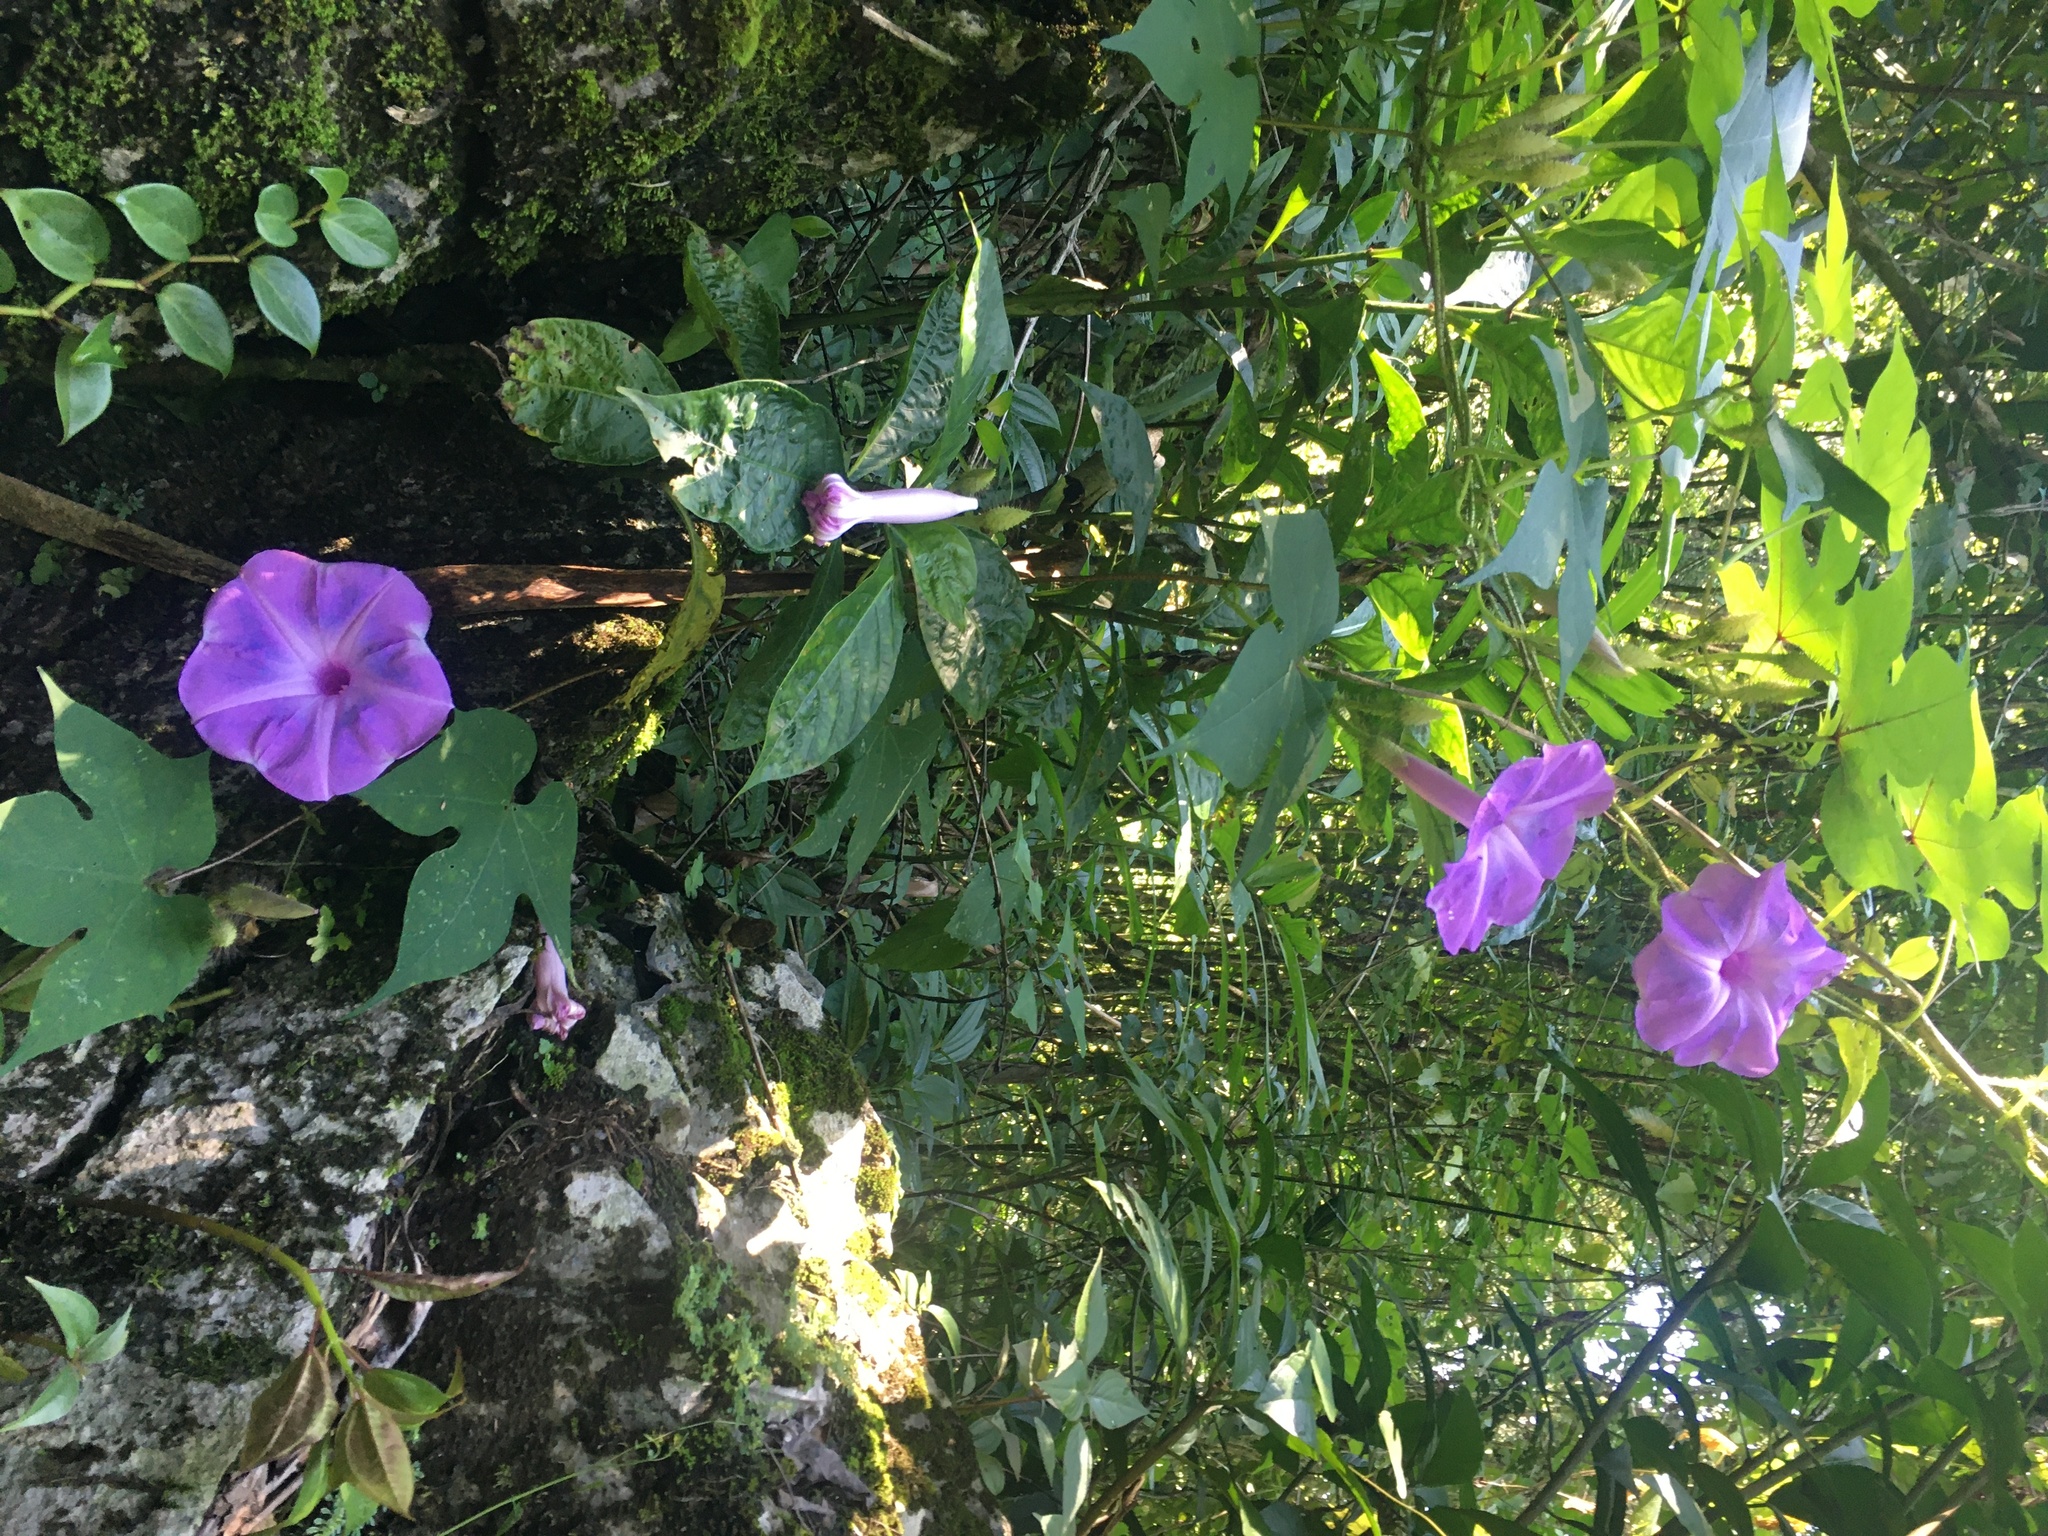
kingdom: Plantae
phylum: Tracheophyta
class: Magnoliopsida
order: Solanales
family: Convolvulaceae
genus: Ipomoea
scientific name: Ipomoea setosa
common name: Brazilian morning-glory
